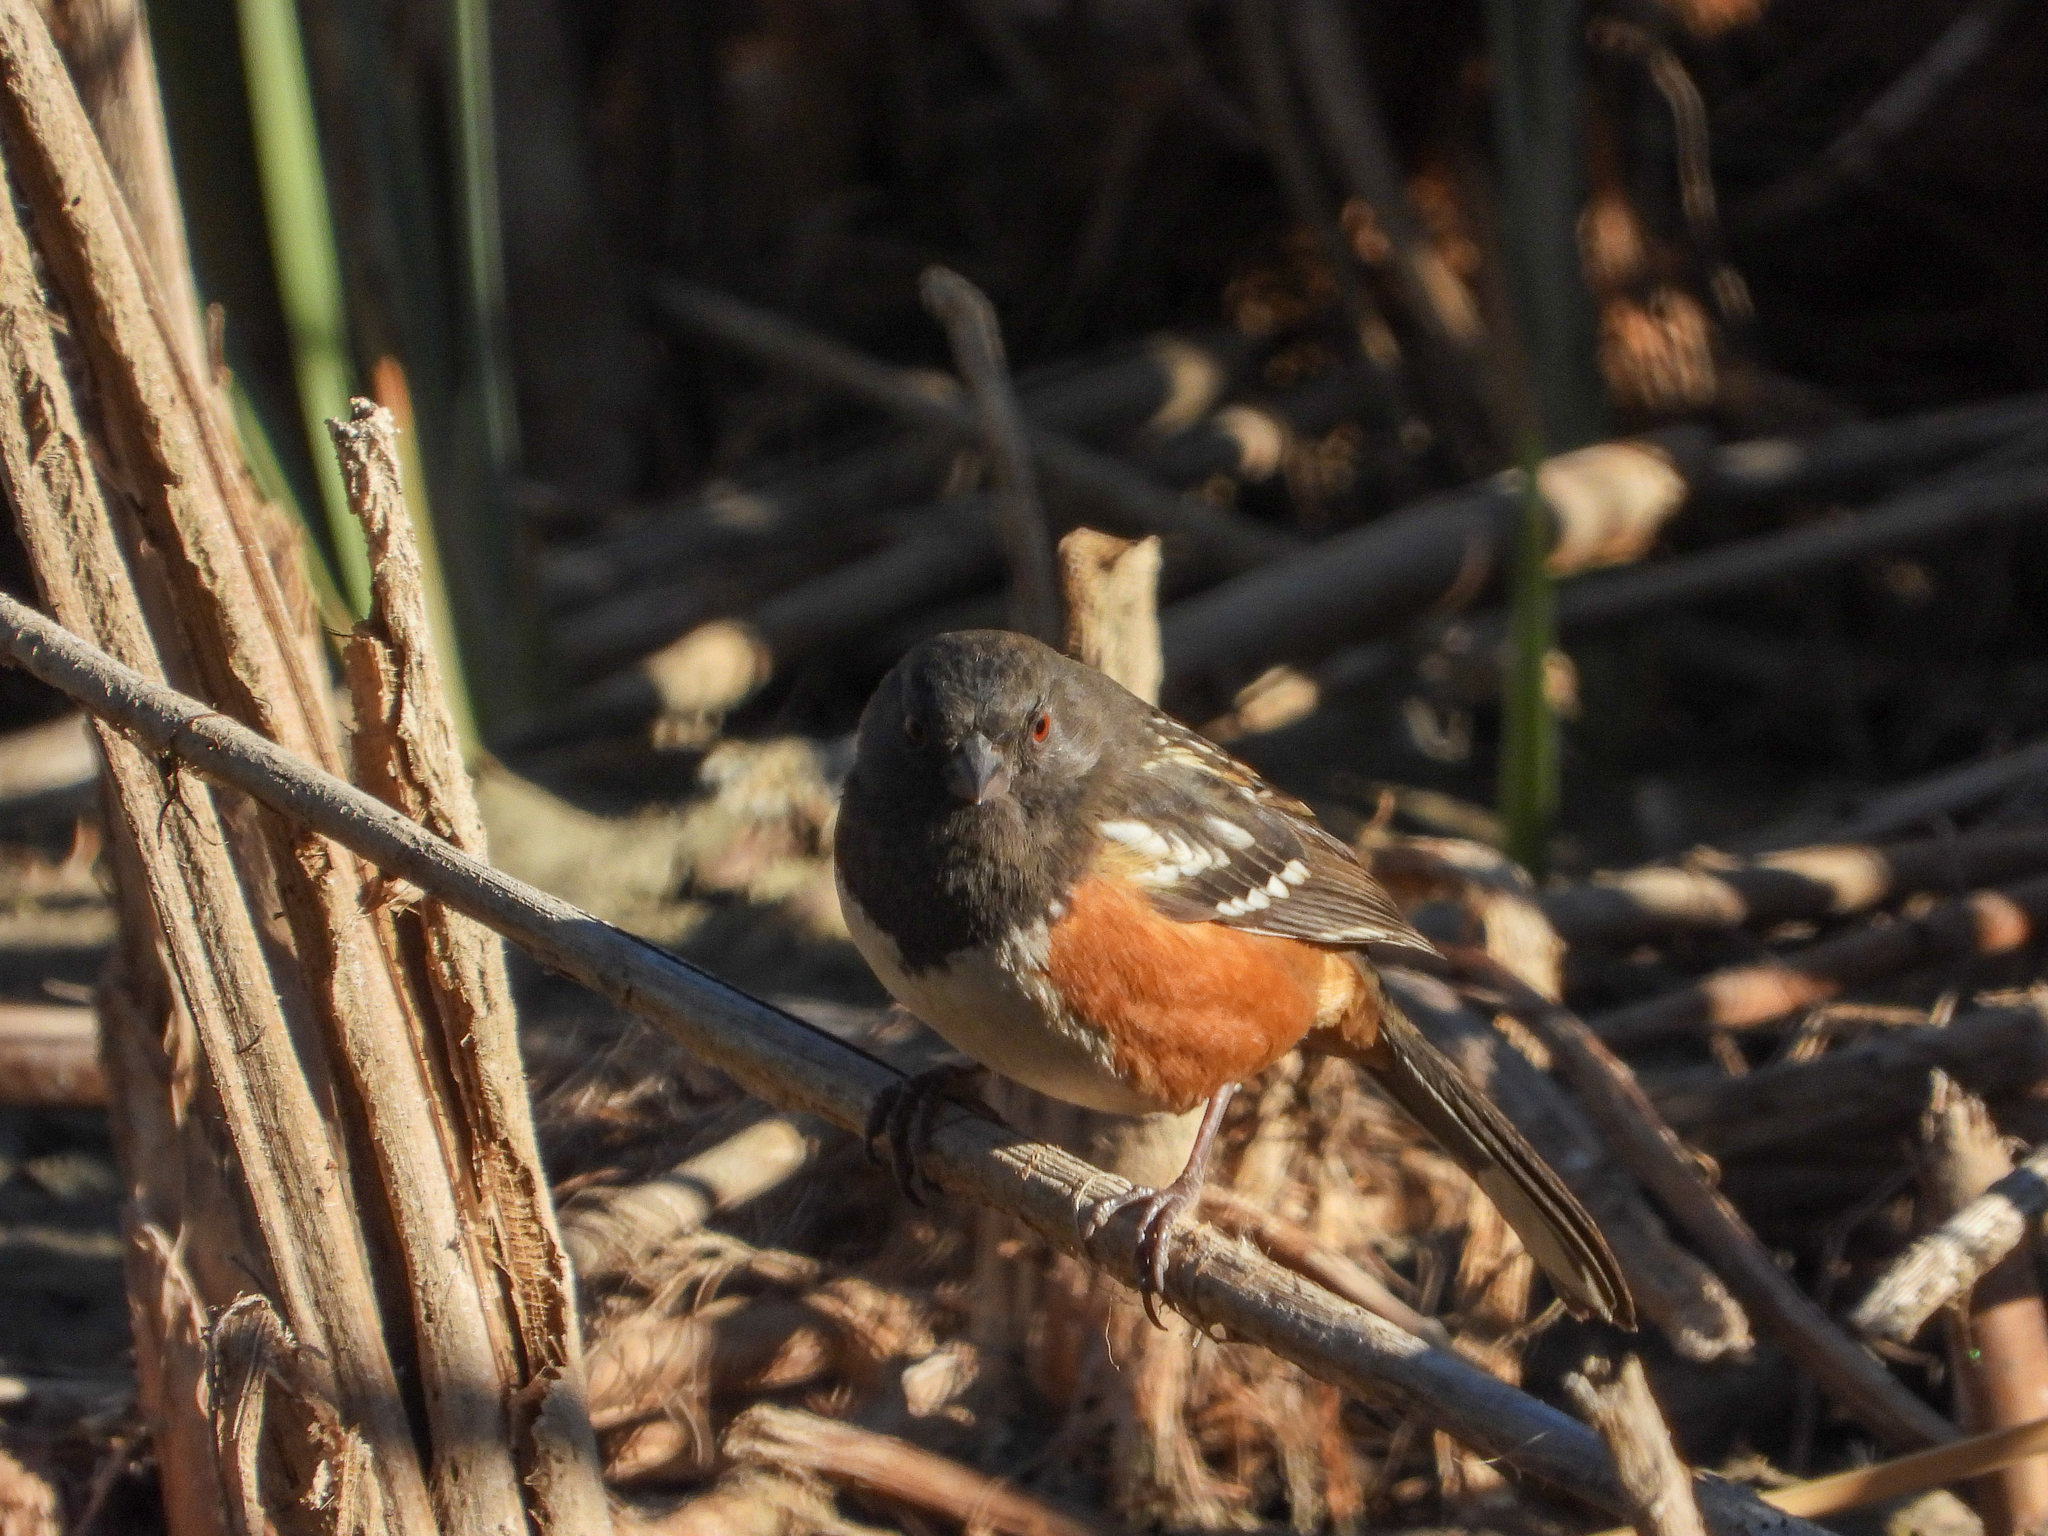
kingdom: Animalia
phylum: Chordata
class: Aves
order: Passeriformes
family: Passerellidae
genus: Pipilo
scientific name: Pipilo maculatus
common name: Spotted towhee
